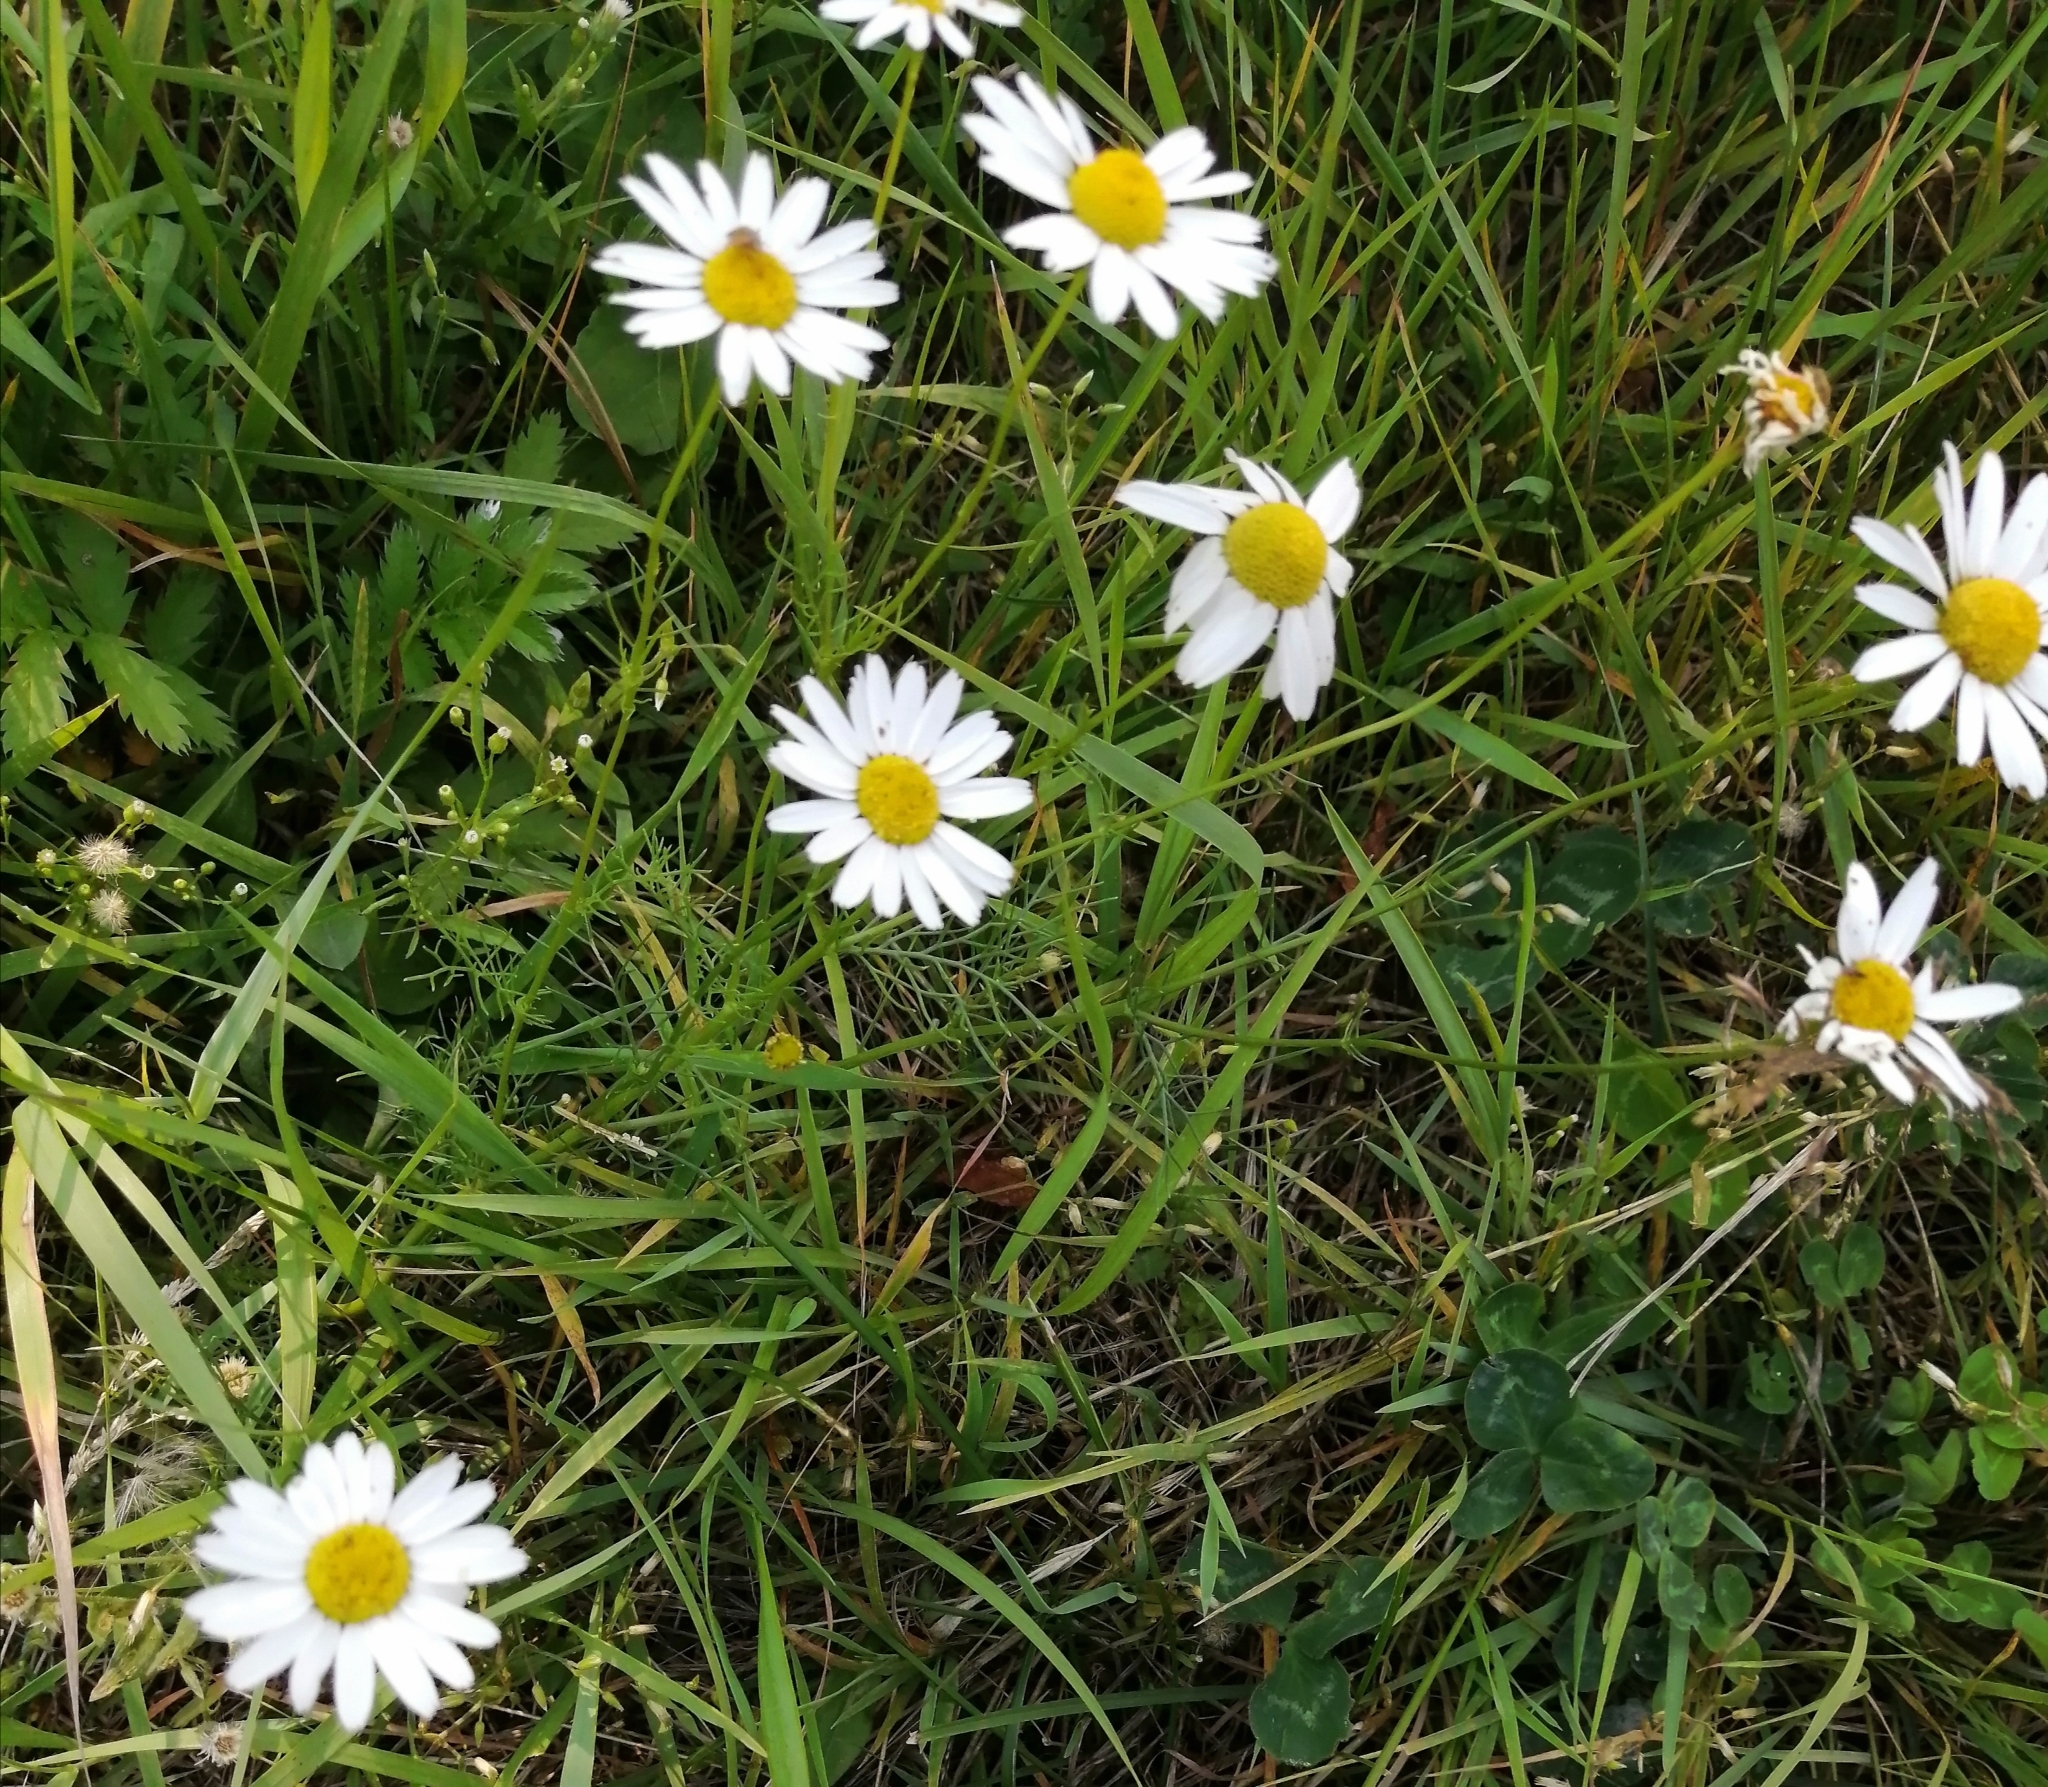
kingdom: Plantae
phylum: Tracheophyta
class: Magnoliopsida
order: Asterales
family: Asteraceae
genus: Tripleurospermum
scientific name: Tripleurospermum inodorum
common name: Scentless mayweed
